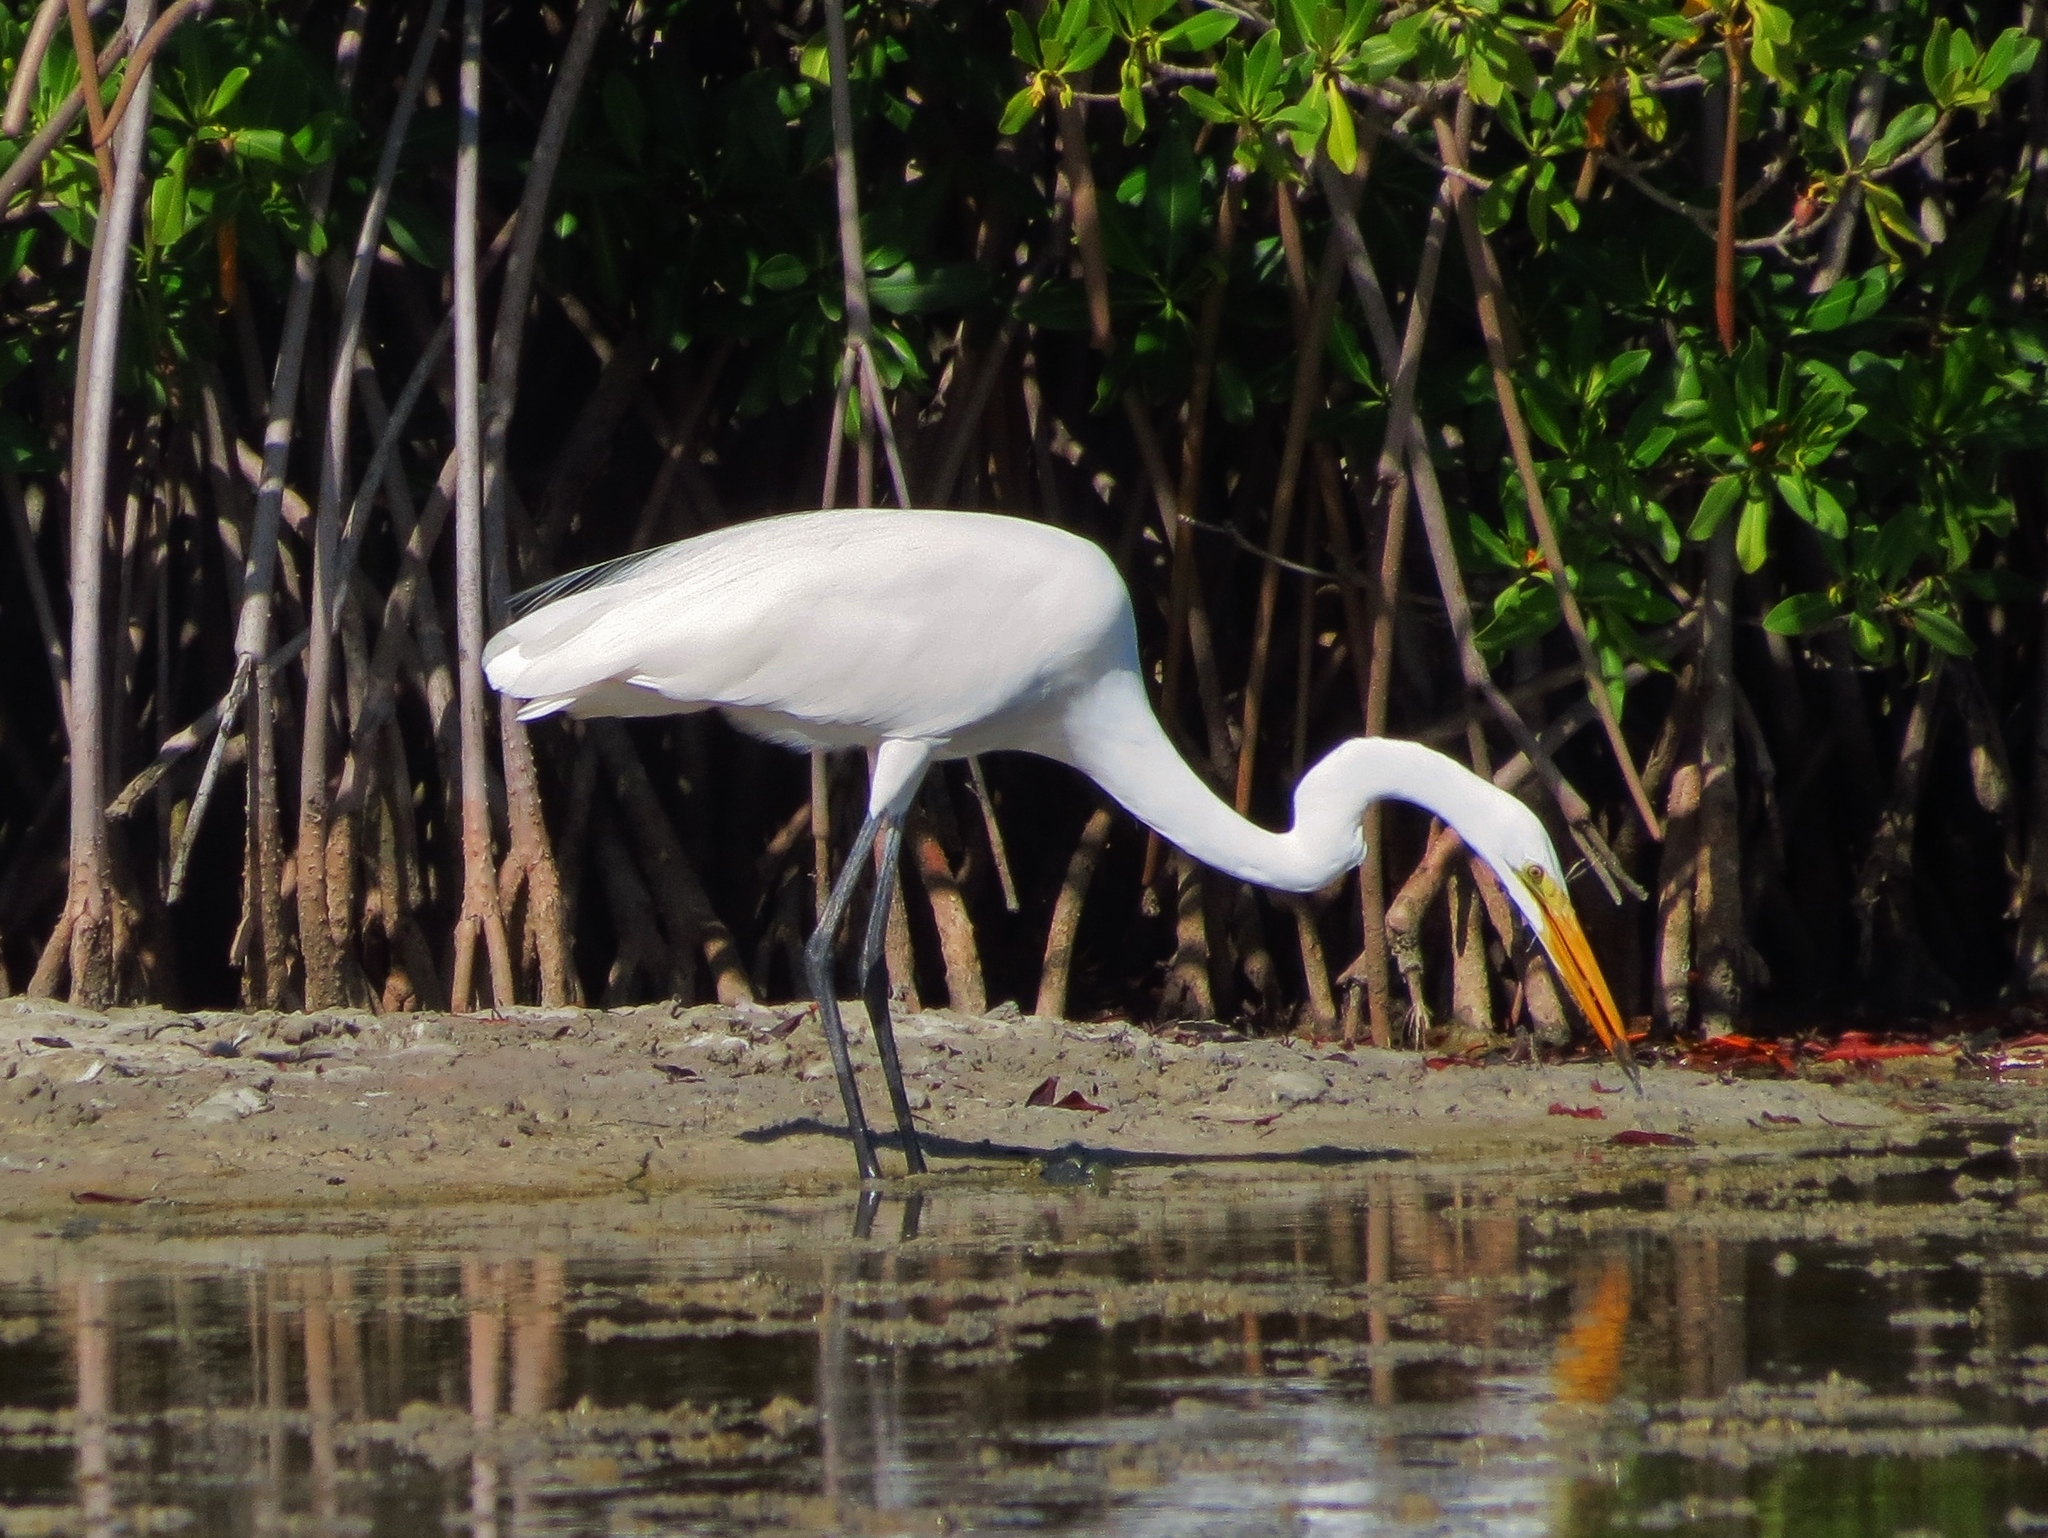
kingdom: Animalia
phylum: Chordata
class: Aves
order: Pelecaniformes
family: Ardeidae
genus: Ardea
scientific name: Ardea alba
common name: Great egret
